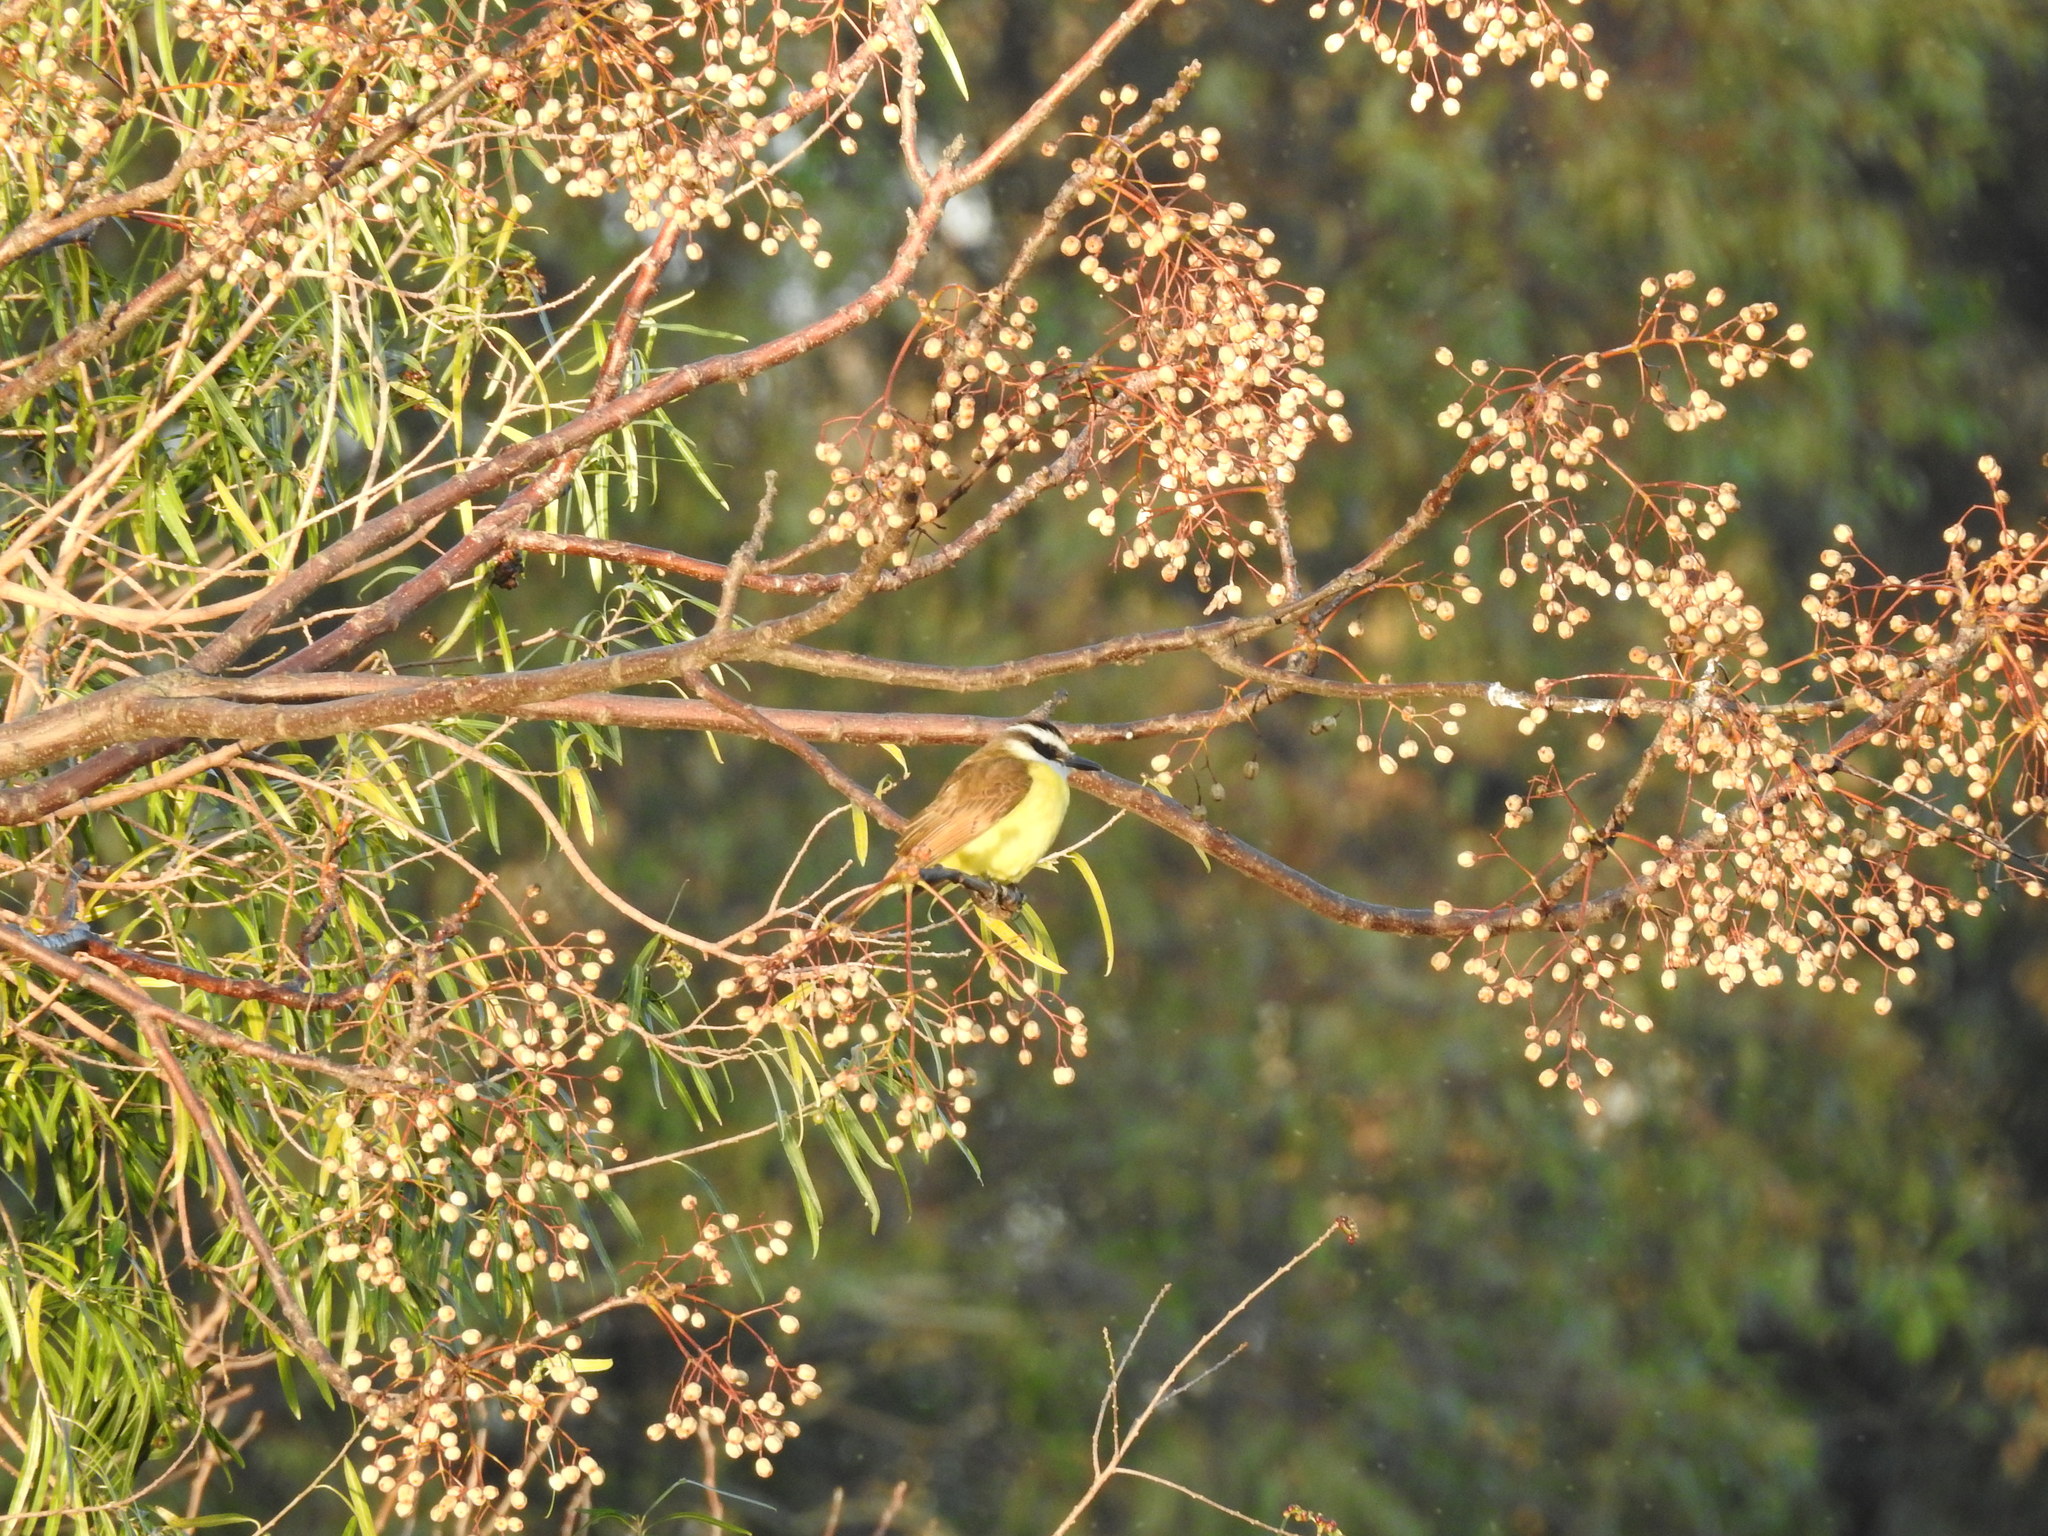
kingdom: Animalia
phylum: Chordata
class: Aves
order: Passeriformes
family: Tyrannidae
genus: Pitangus
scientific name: Pitangus sulphuratus
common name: Great kiskadee
